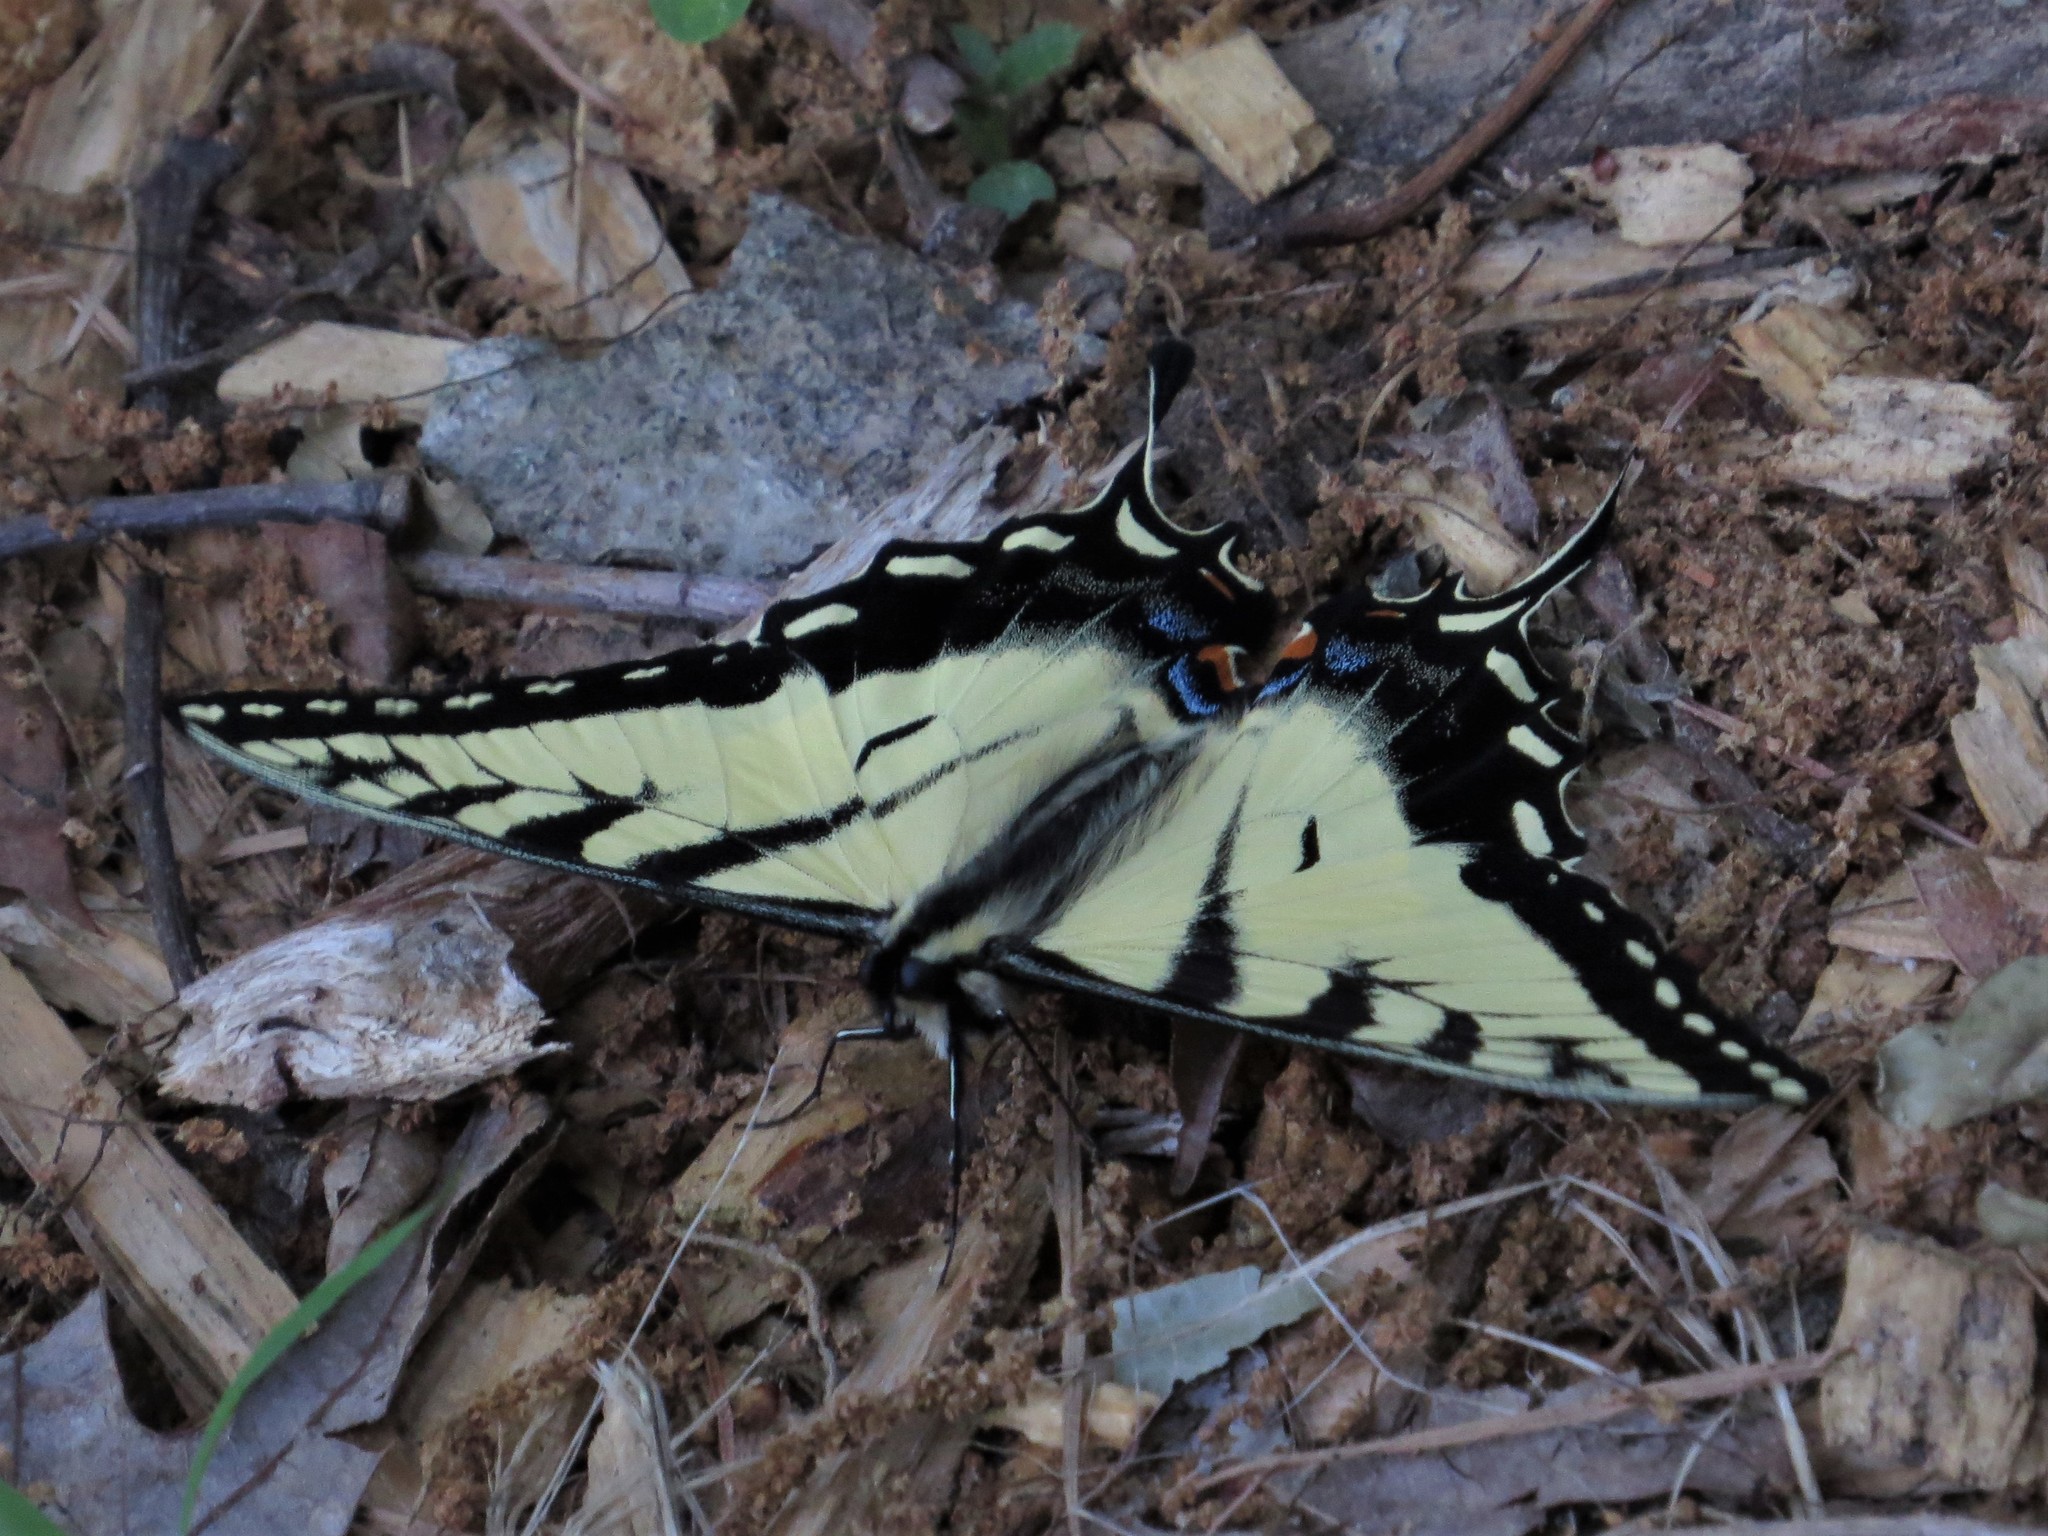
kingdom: Animalia
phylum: Arthropoda
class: Insecta
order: Lepidoptera
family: Papilionidae
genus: Papilio
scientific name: Papilio glaucus
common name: Tiger swallowtail
